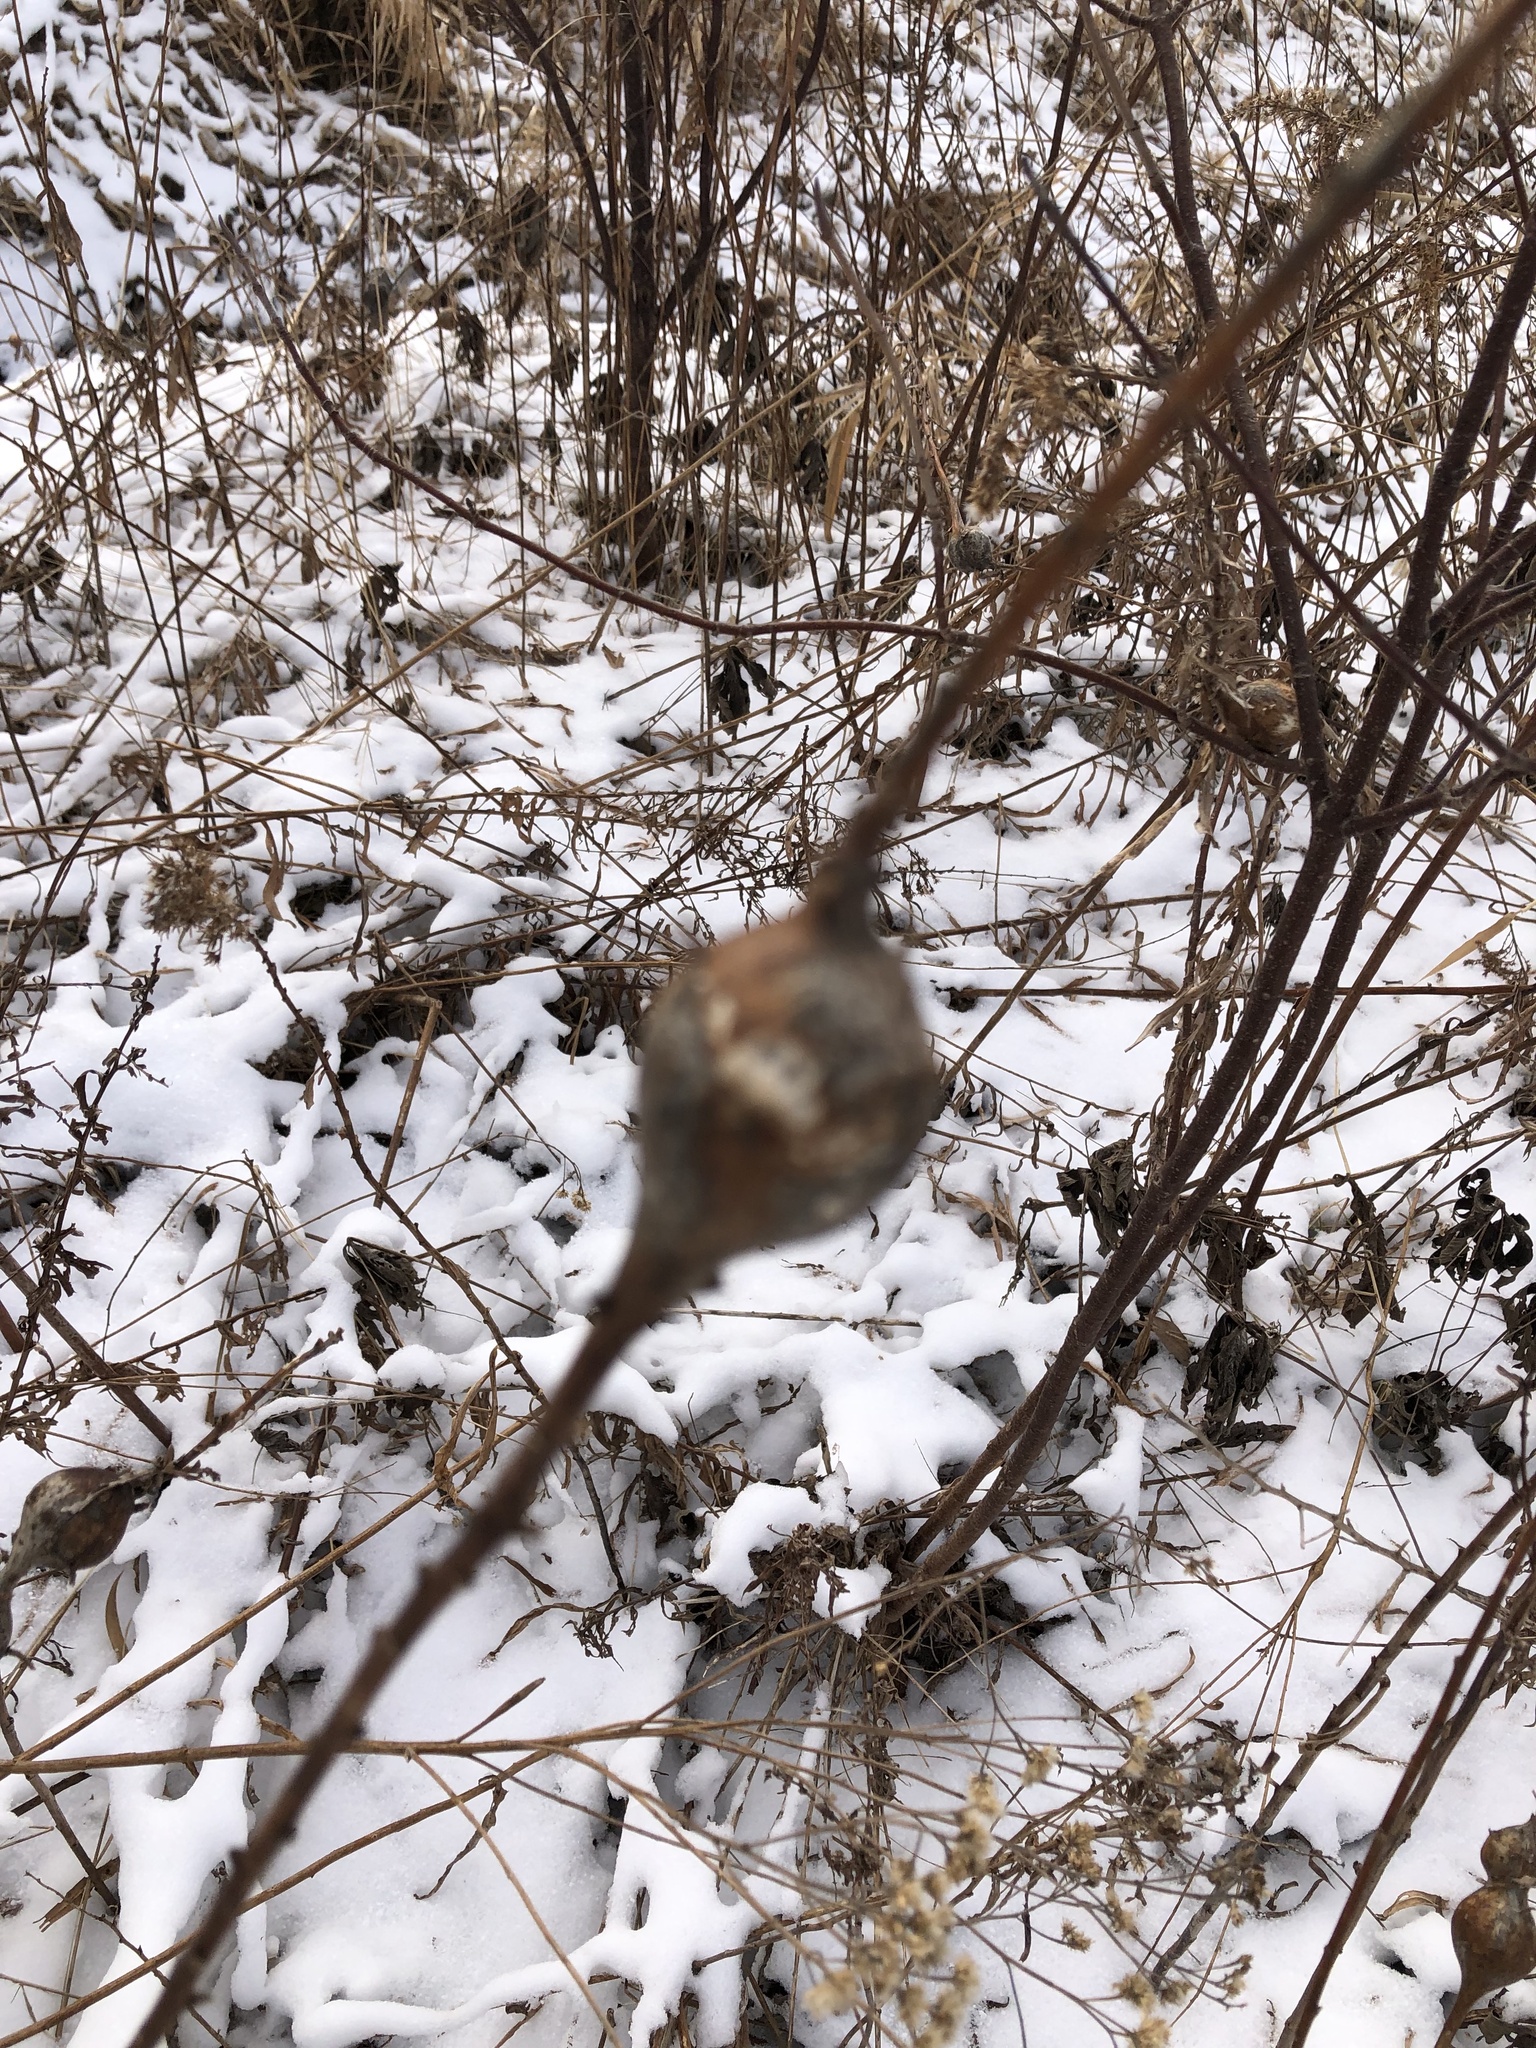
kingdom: Animalia
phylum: Arthropoda
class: Insecta
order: Diptera
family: Tephritidae
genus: Eurosta
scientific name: Eurosta solidaginis
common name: Goldenrod gall fly
